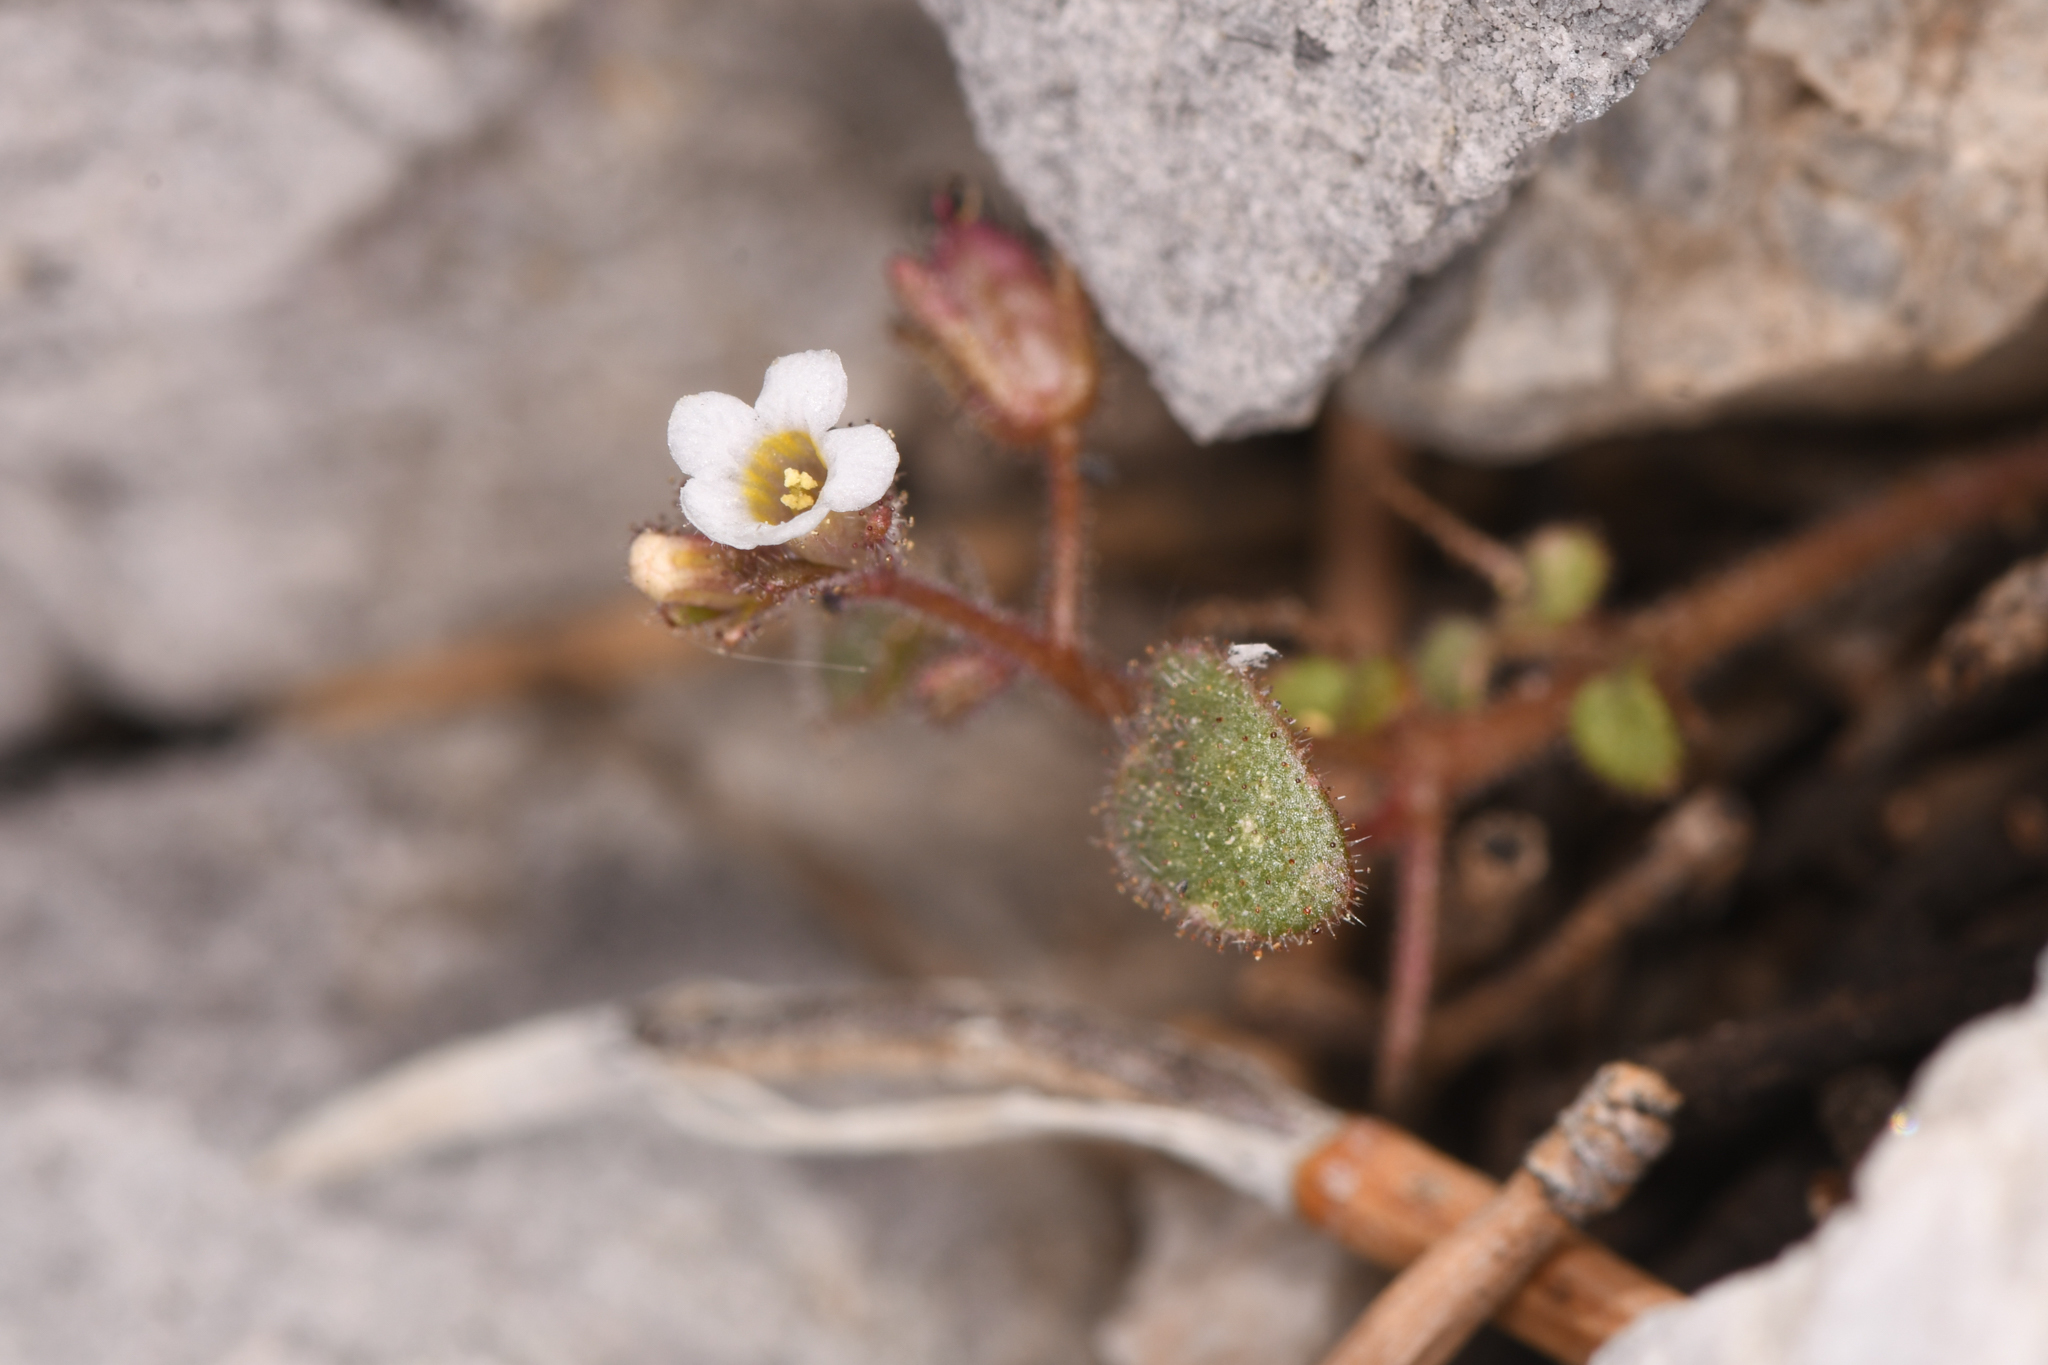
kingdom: Plantae
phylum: Tracheophyta
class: Magnoliopsida
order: Boraginales
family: Hydrophyllaceae
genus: Phacelia
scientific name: Phacelia barnebyana
